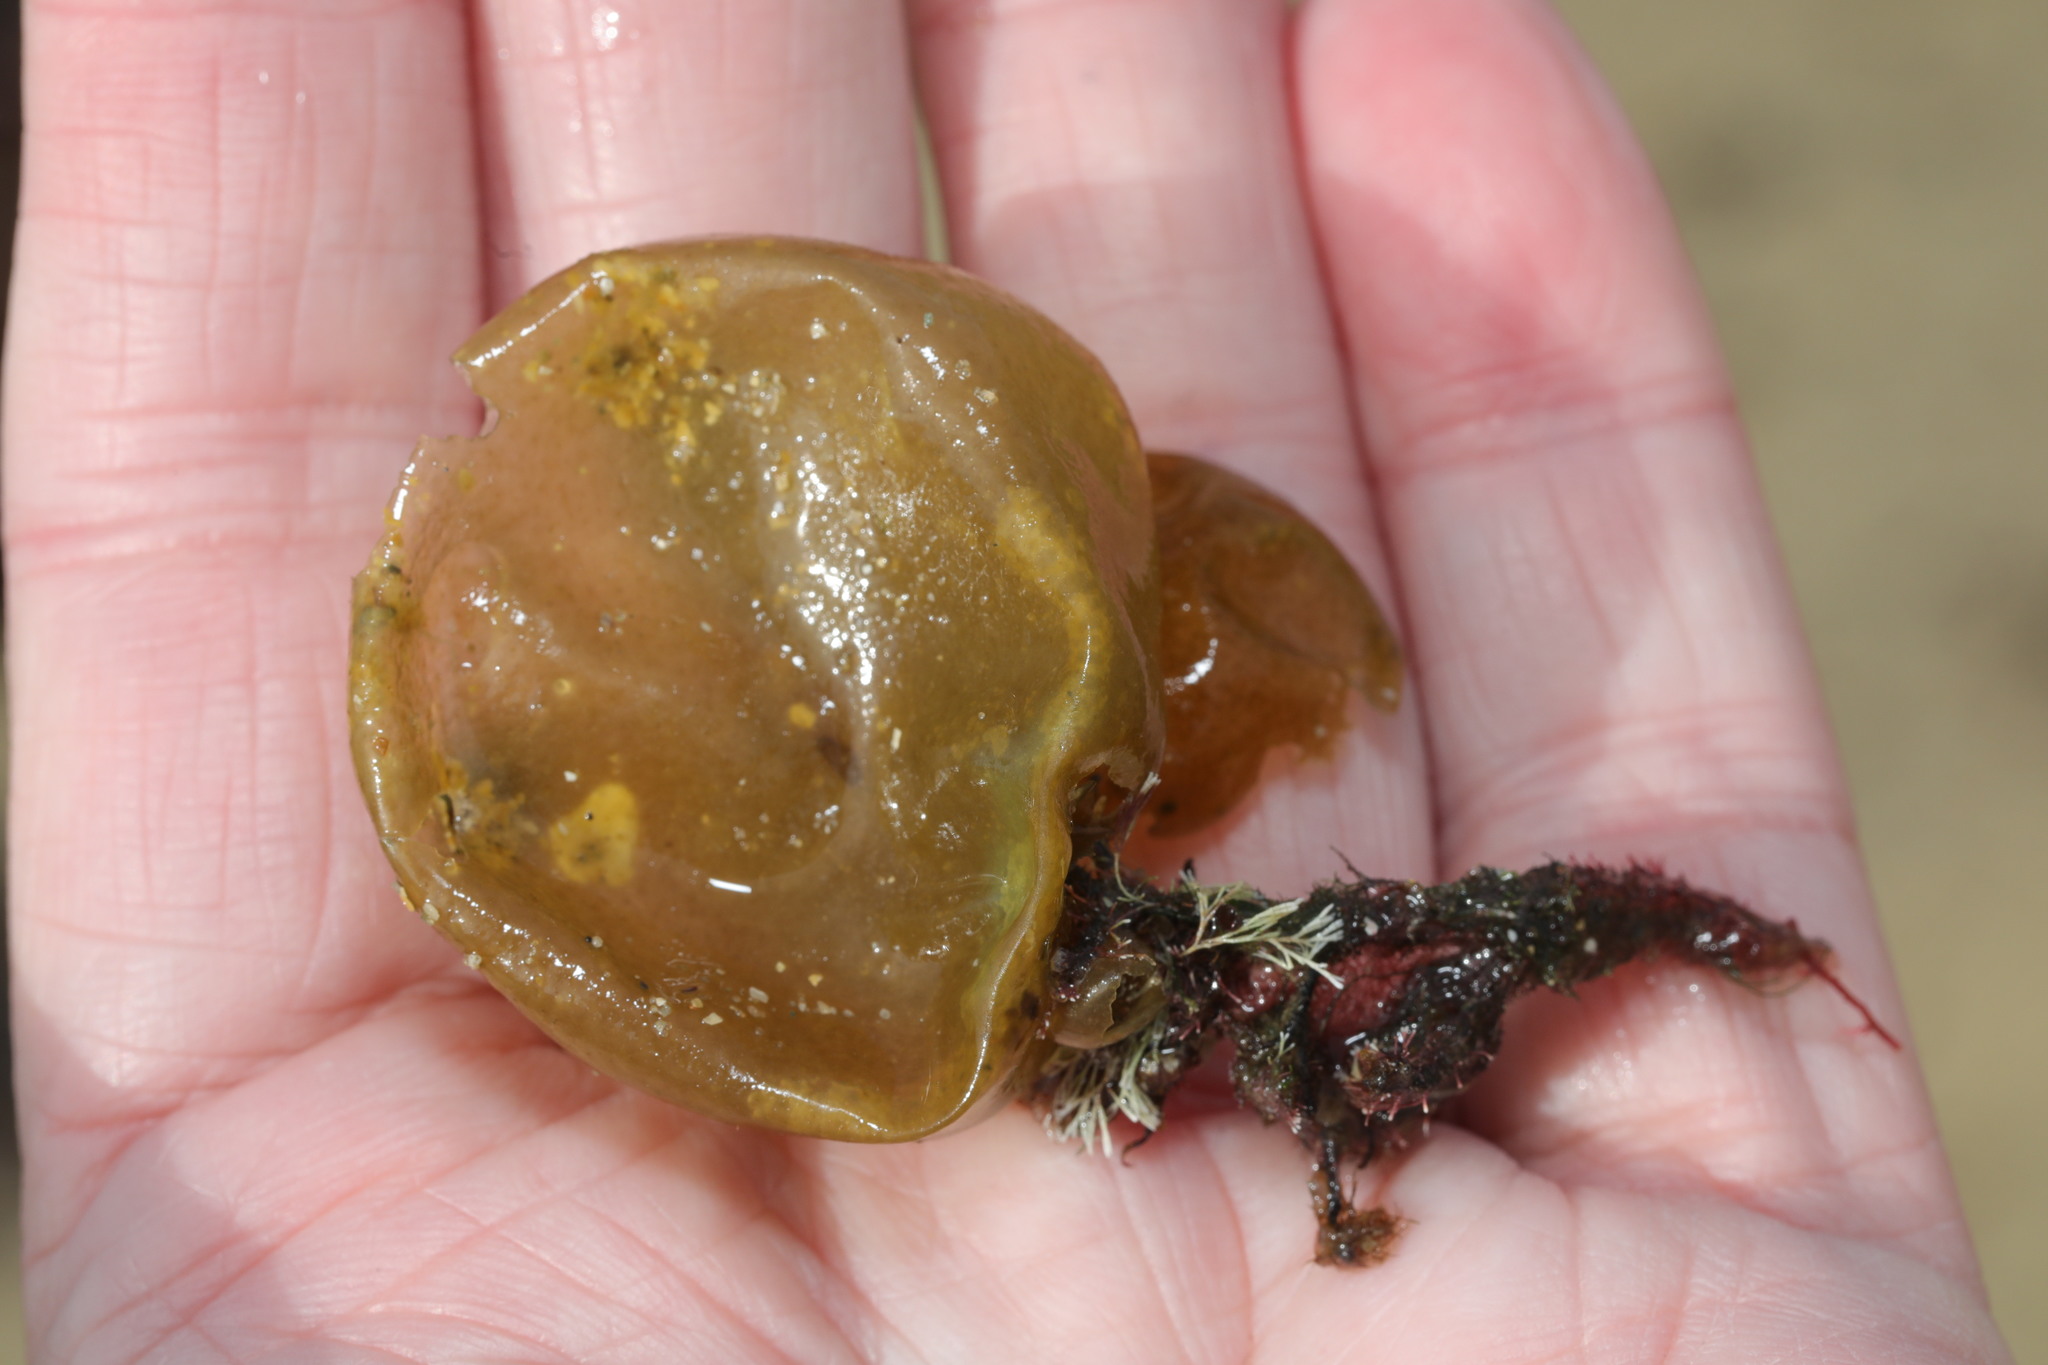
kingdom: Chromista
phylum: Ochrophyta
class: Phaeophyceae
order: Scytosiphonales
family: Scytosiphonaceae
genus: Colpomenia
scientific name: Colpomenia peregrina
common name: Oyster thief
